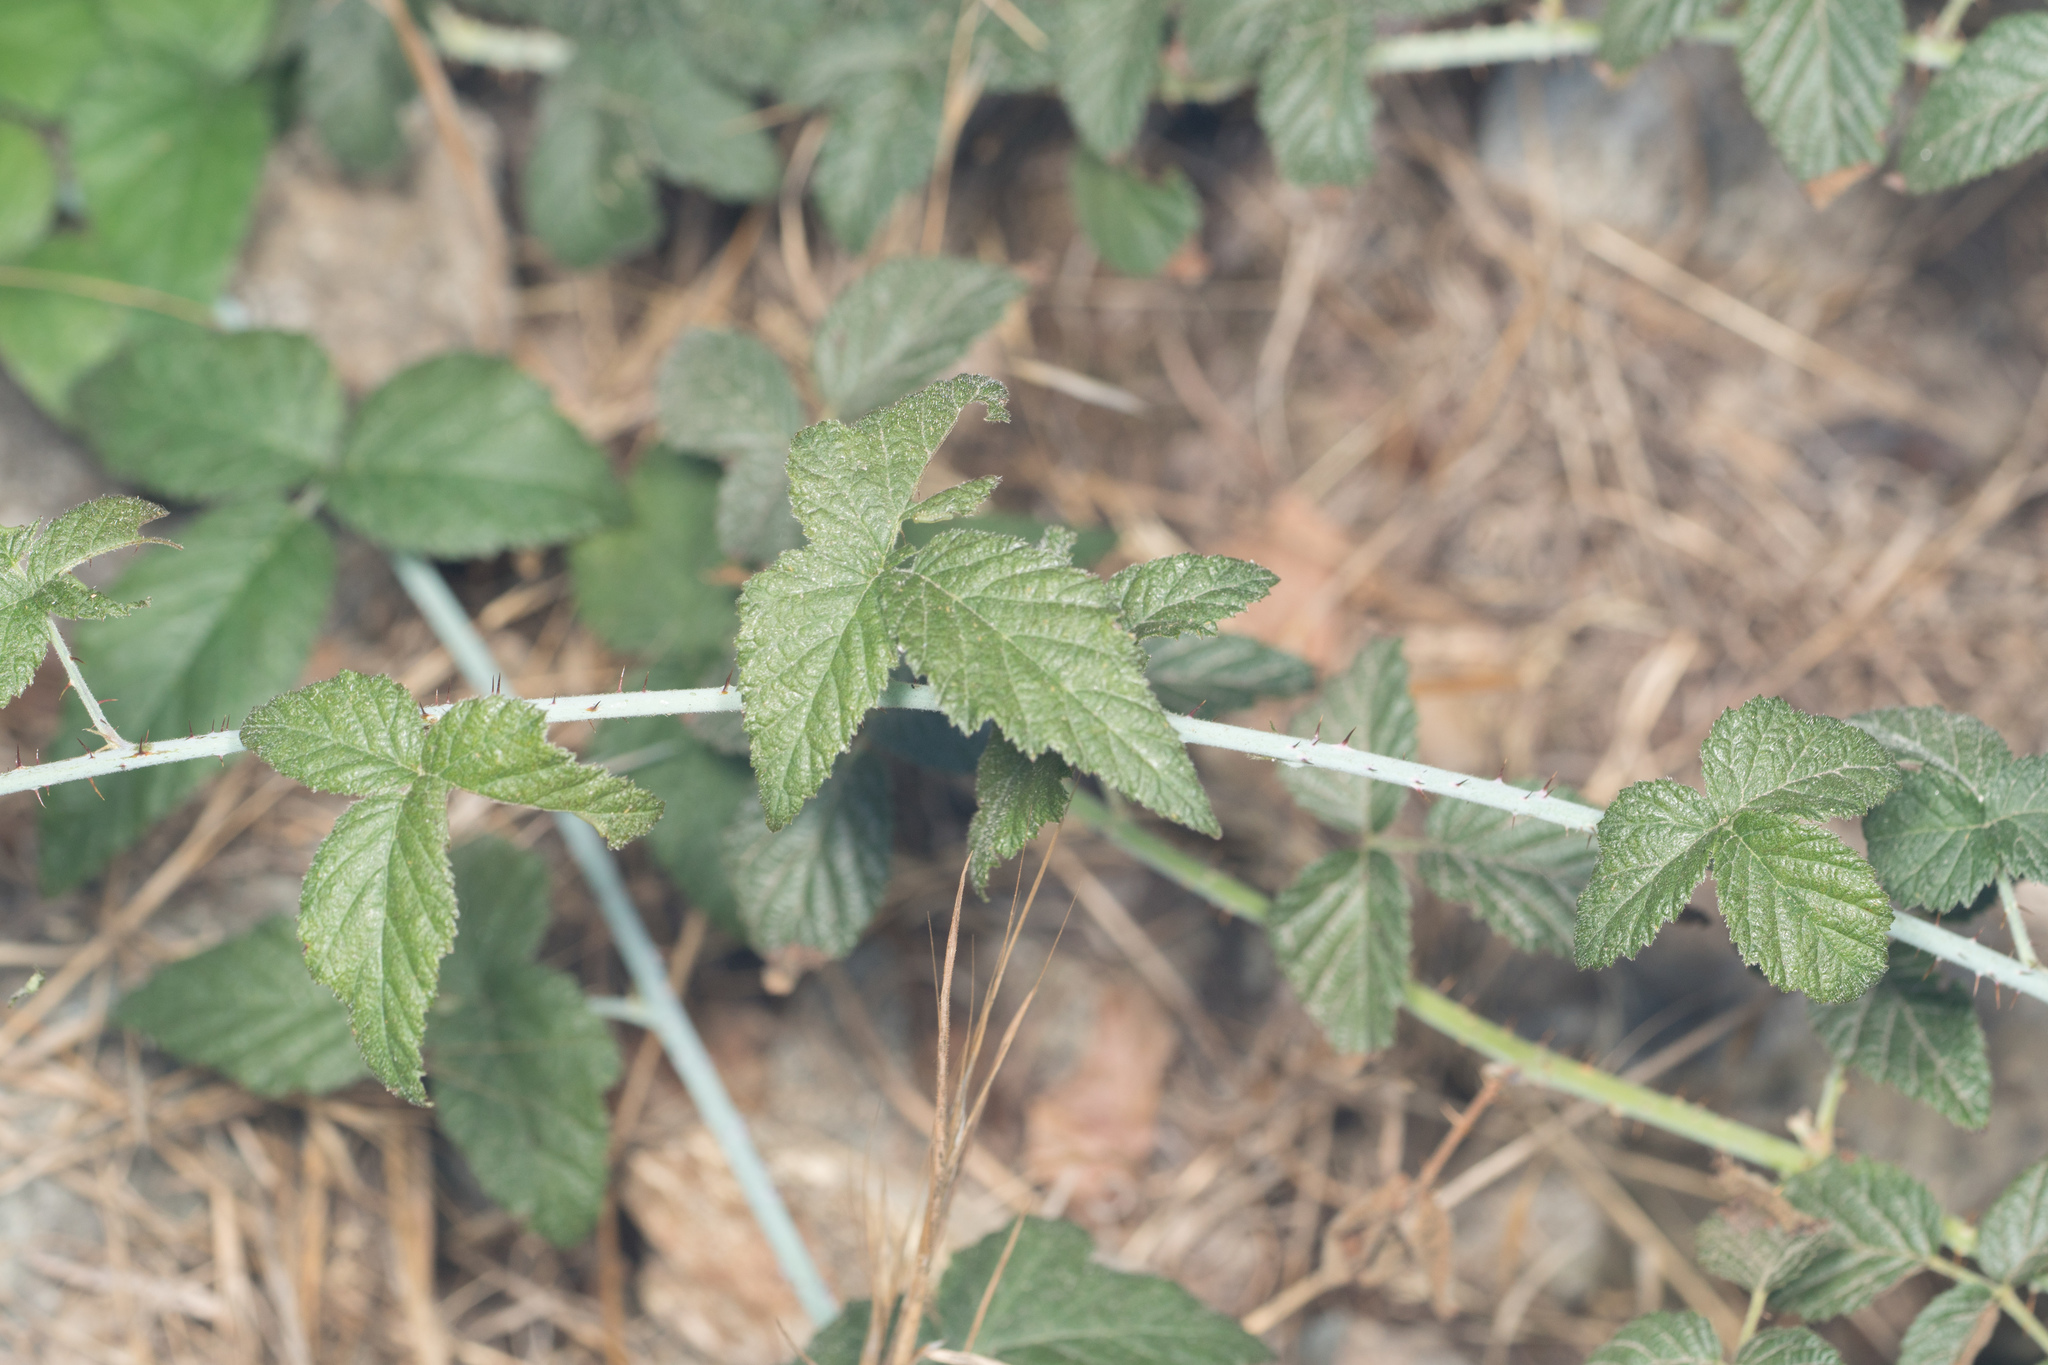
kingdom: Plantae
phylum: Tracheophyta
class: Magnoliopsida
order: Rosales
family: Rosaceae
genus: Rubus
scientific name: Rubus ursinus
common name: Pacific blackberry
